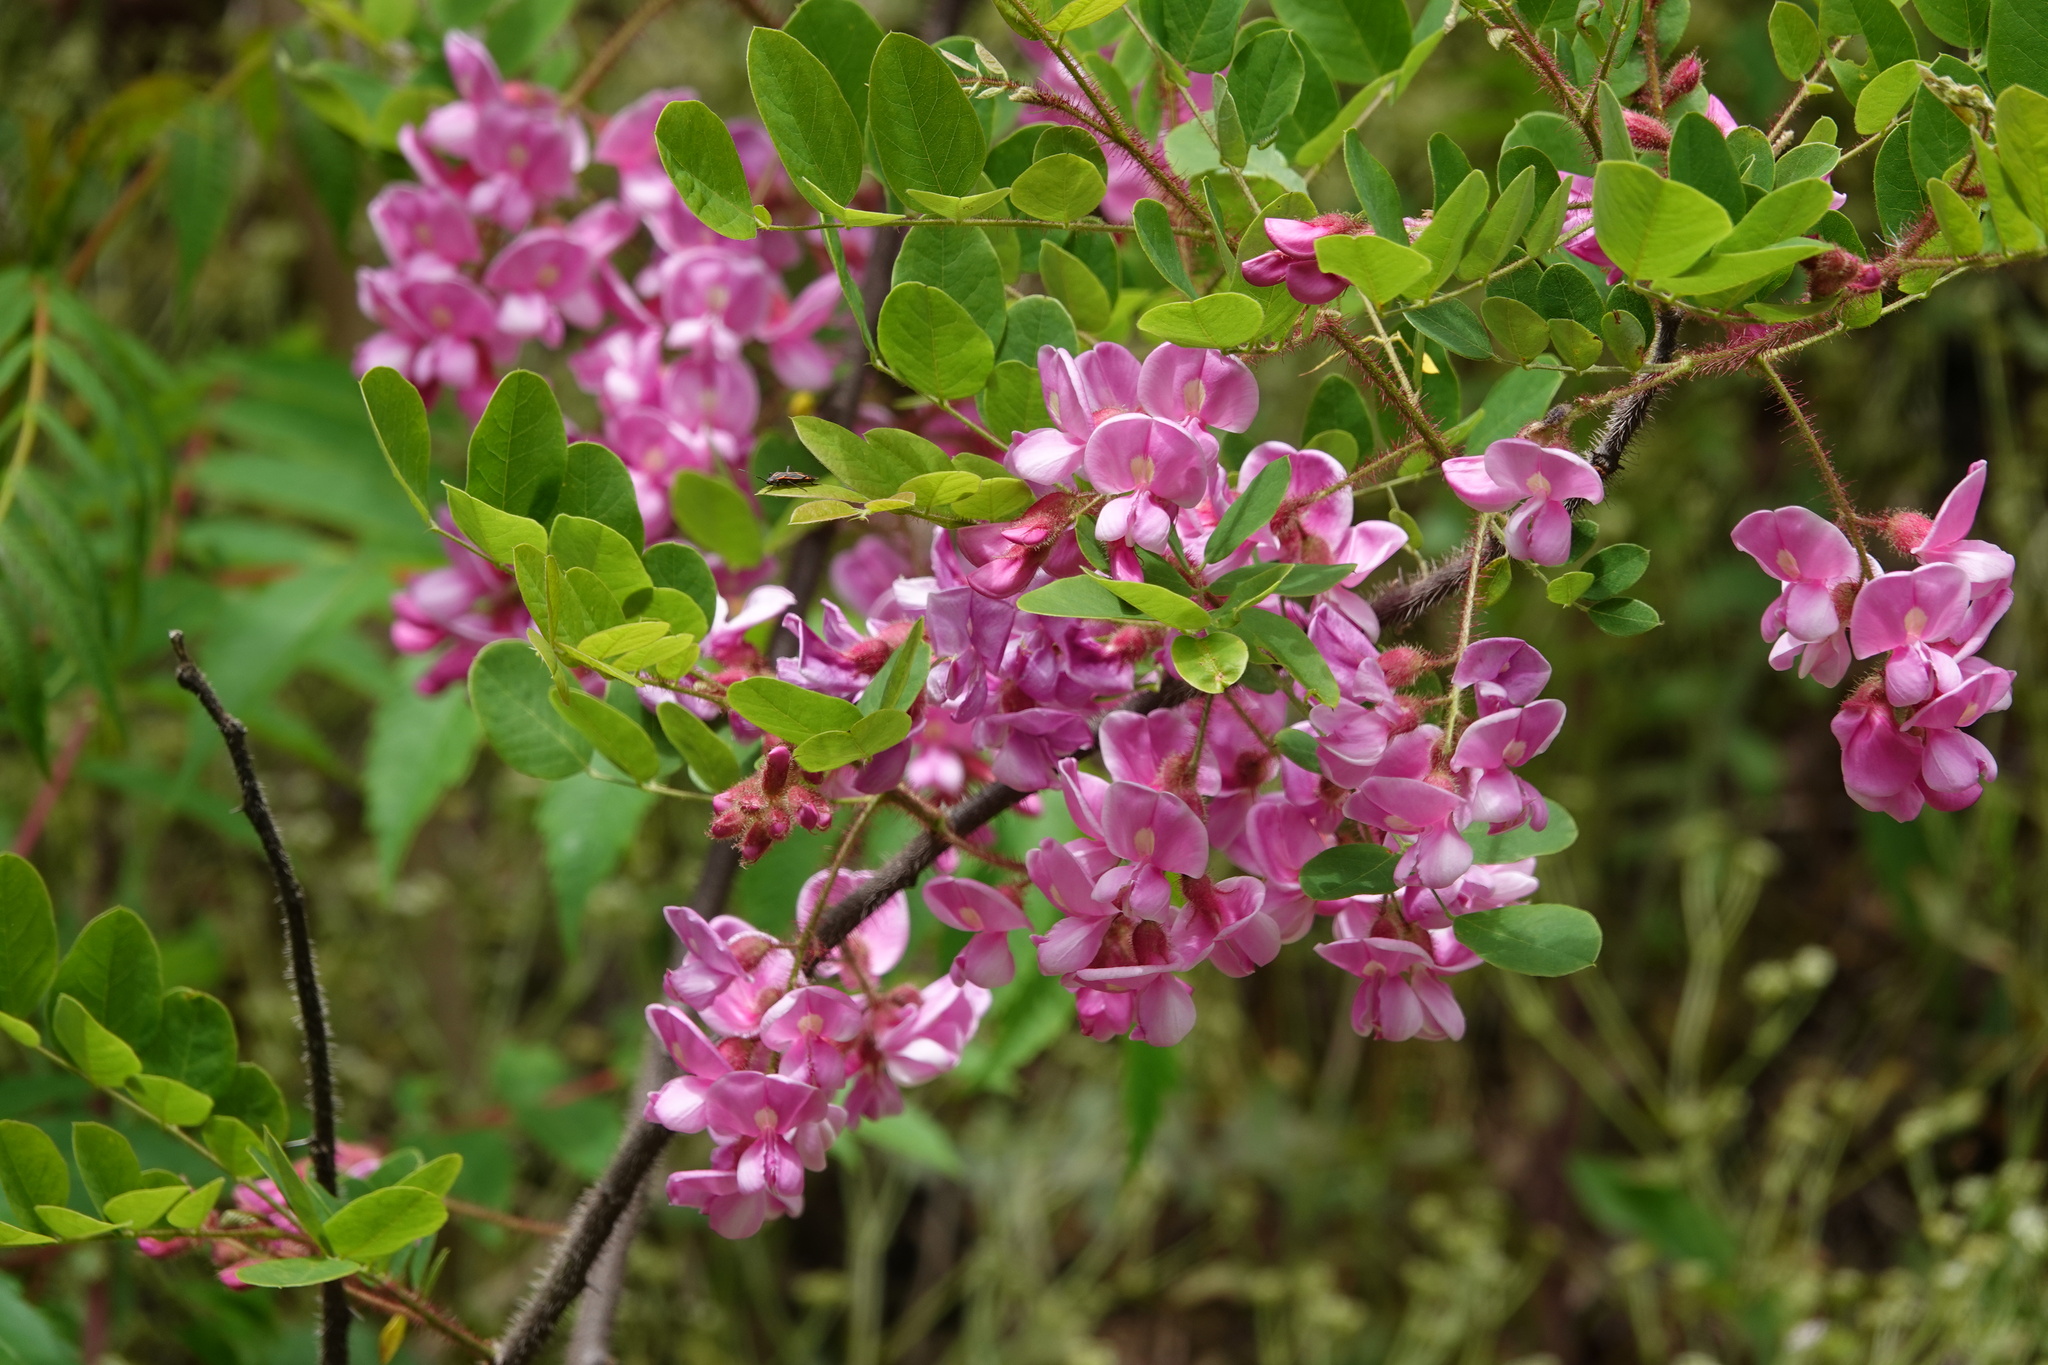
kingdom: Plantae
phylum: Tracheophyta
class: Magnoliopsida
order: Fabales
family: Fabaceae
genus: Robinia
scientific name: Robinia hispida
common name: Bristly locust
